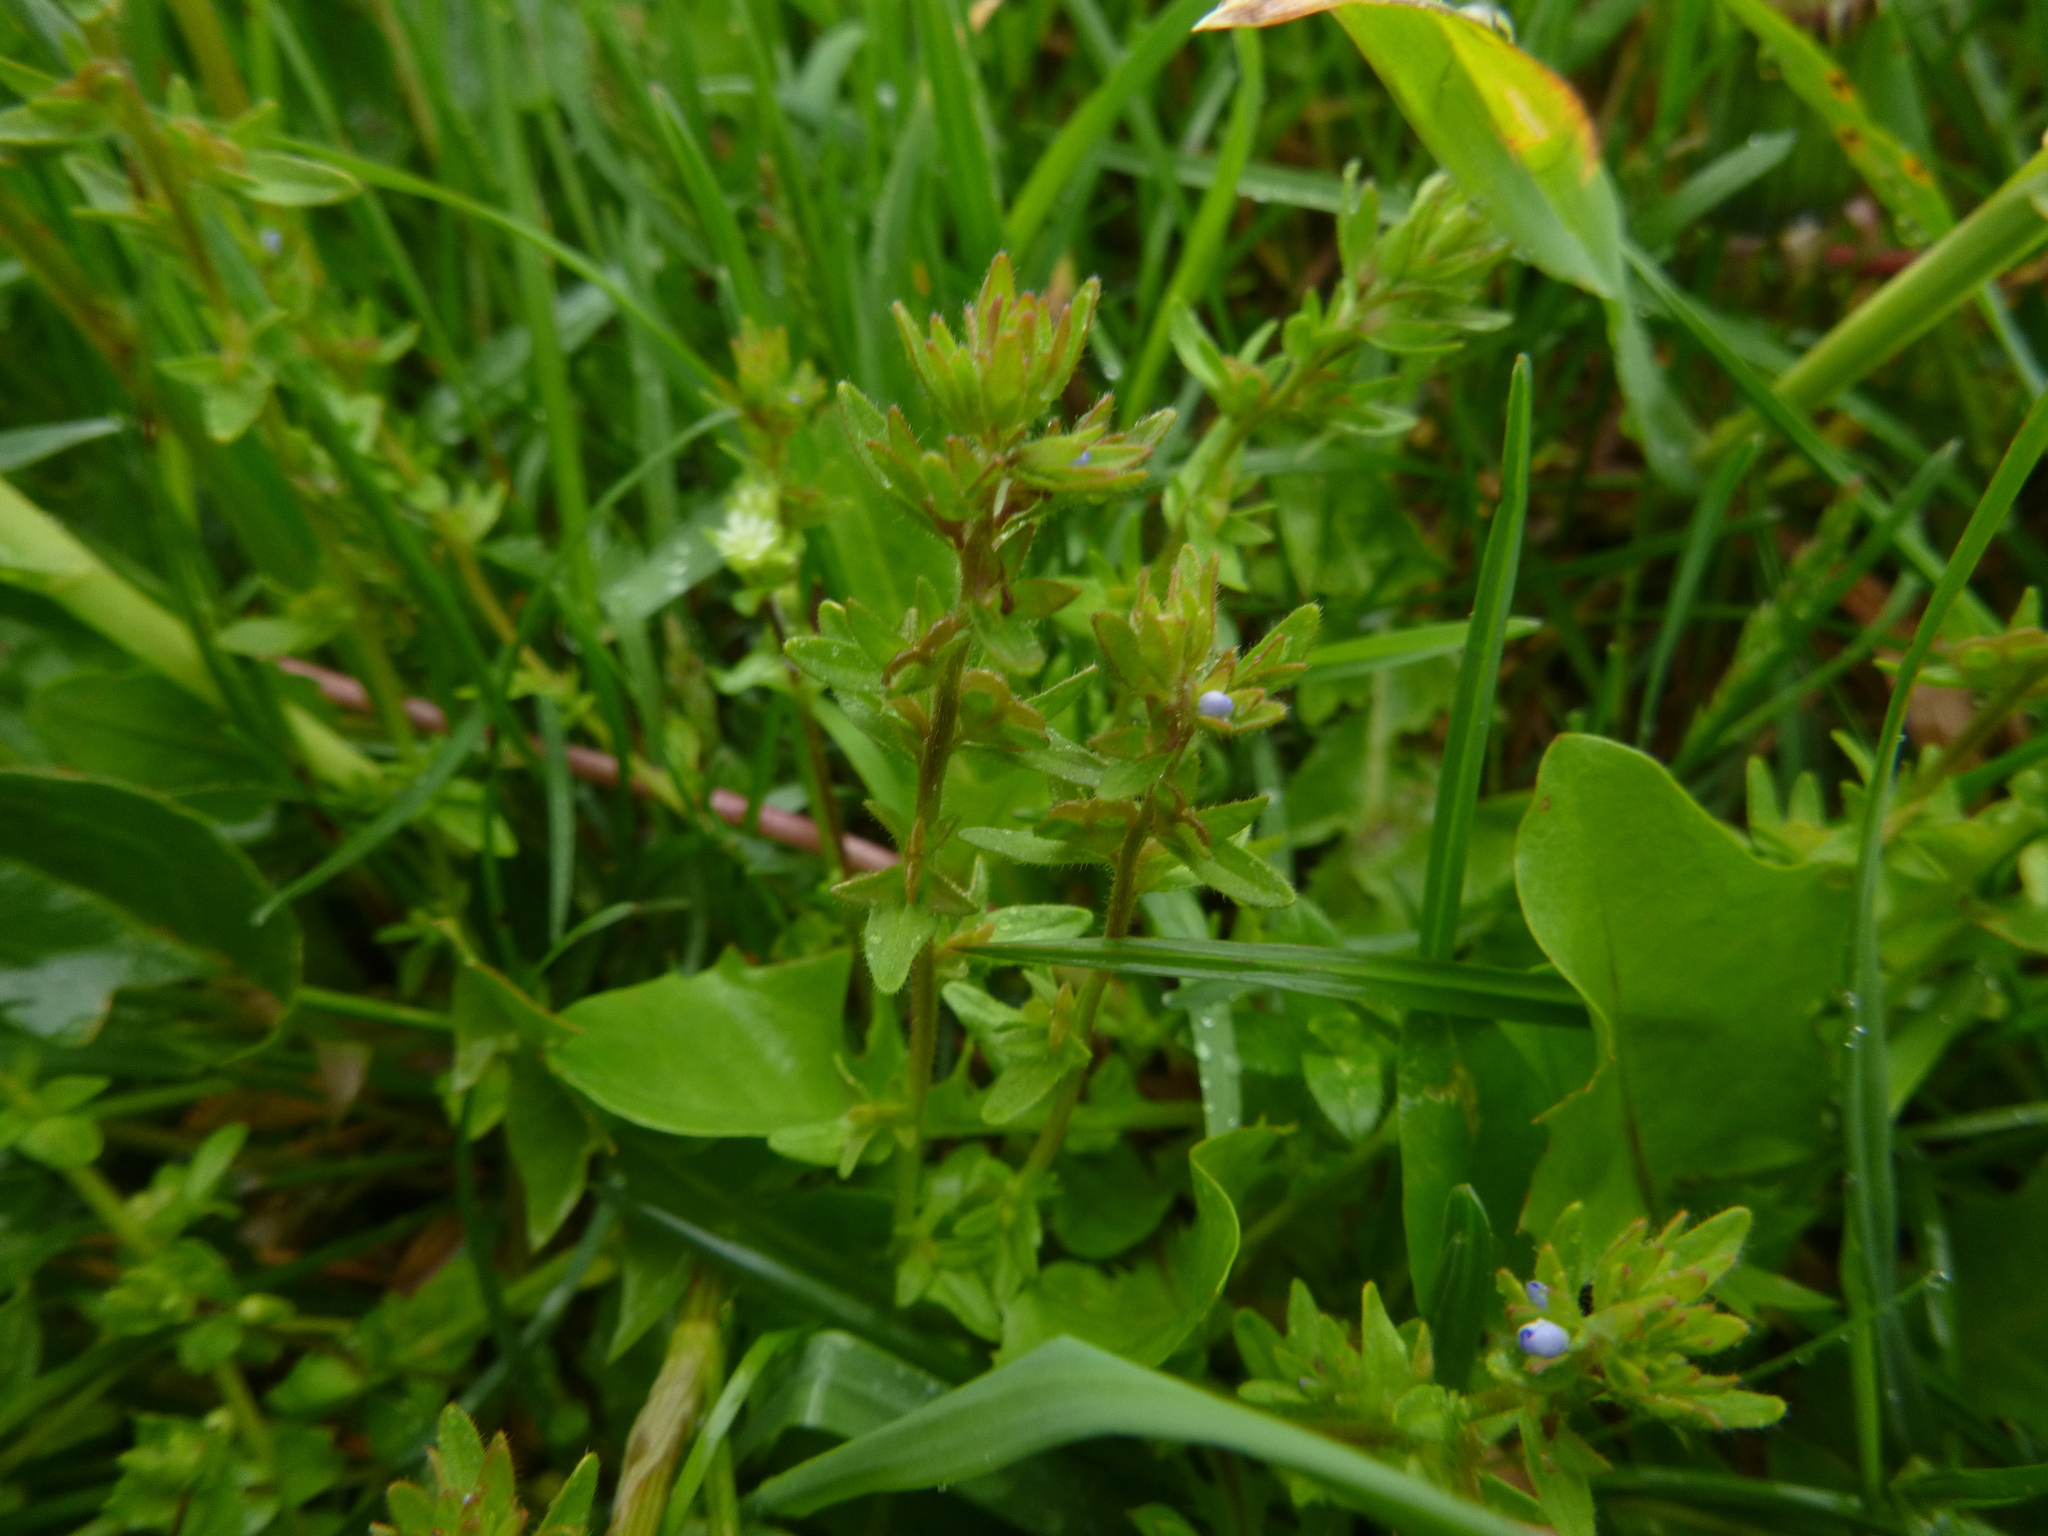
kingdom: Plantae
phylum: Tracheophyta
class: Magnoliopsida
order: Lamiales
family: Plantaginaceae
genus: Veronica
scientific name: Veronica arvensis
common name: Corn speedwell
